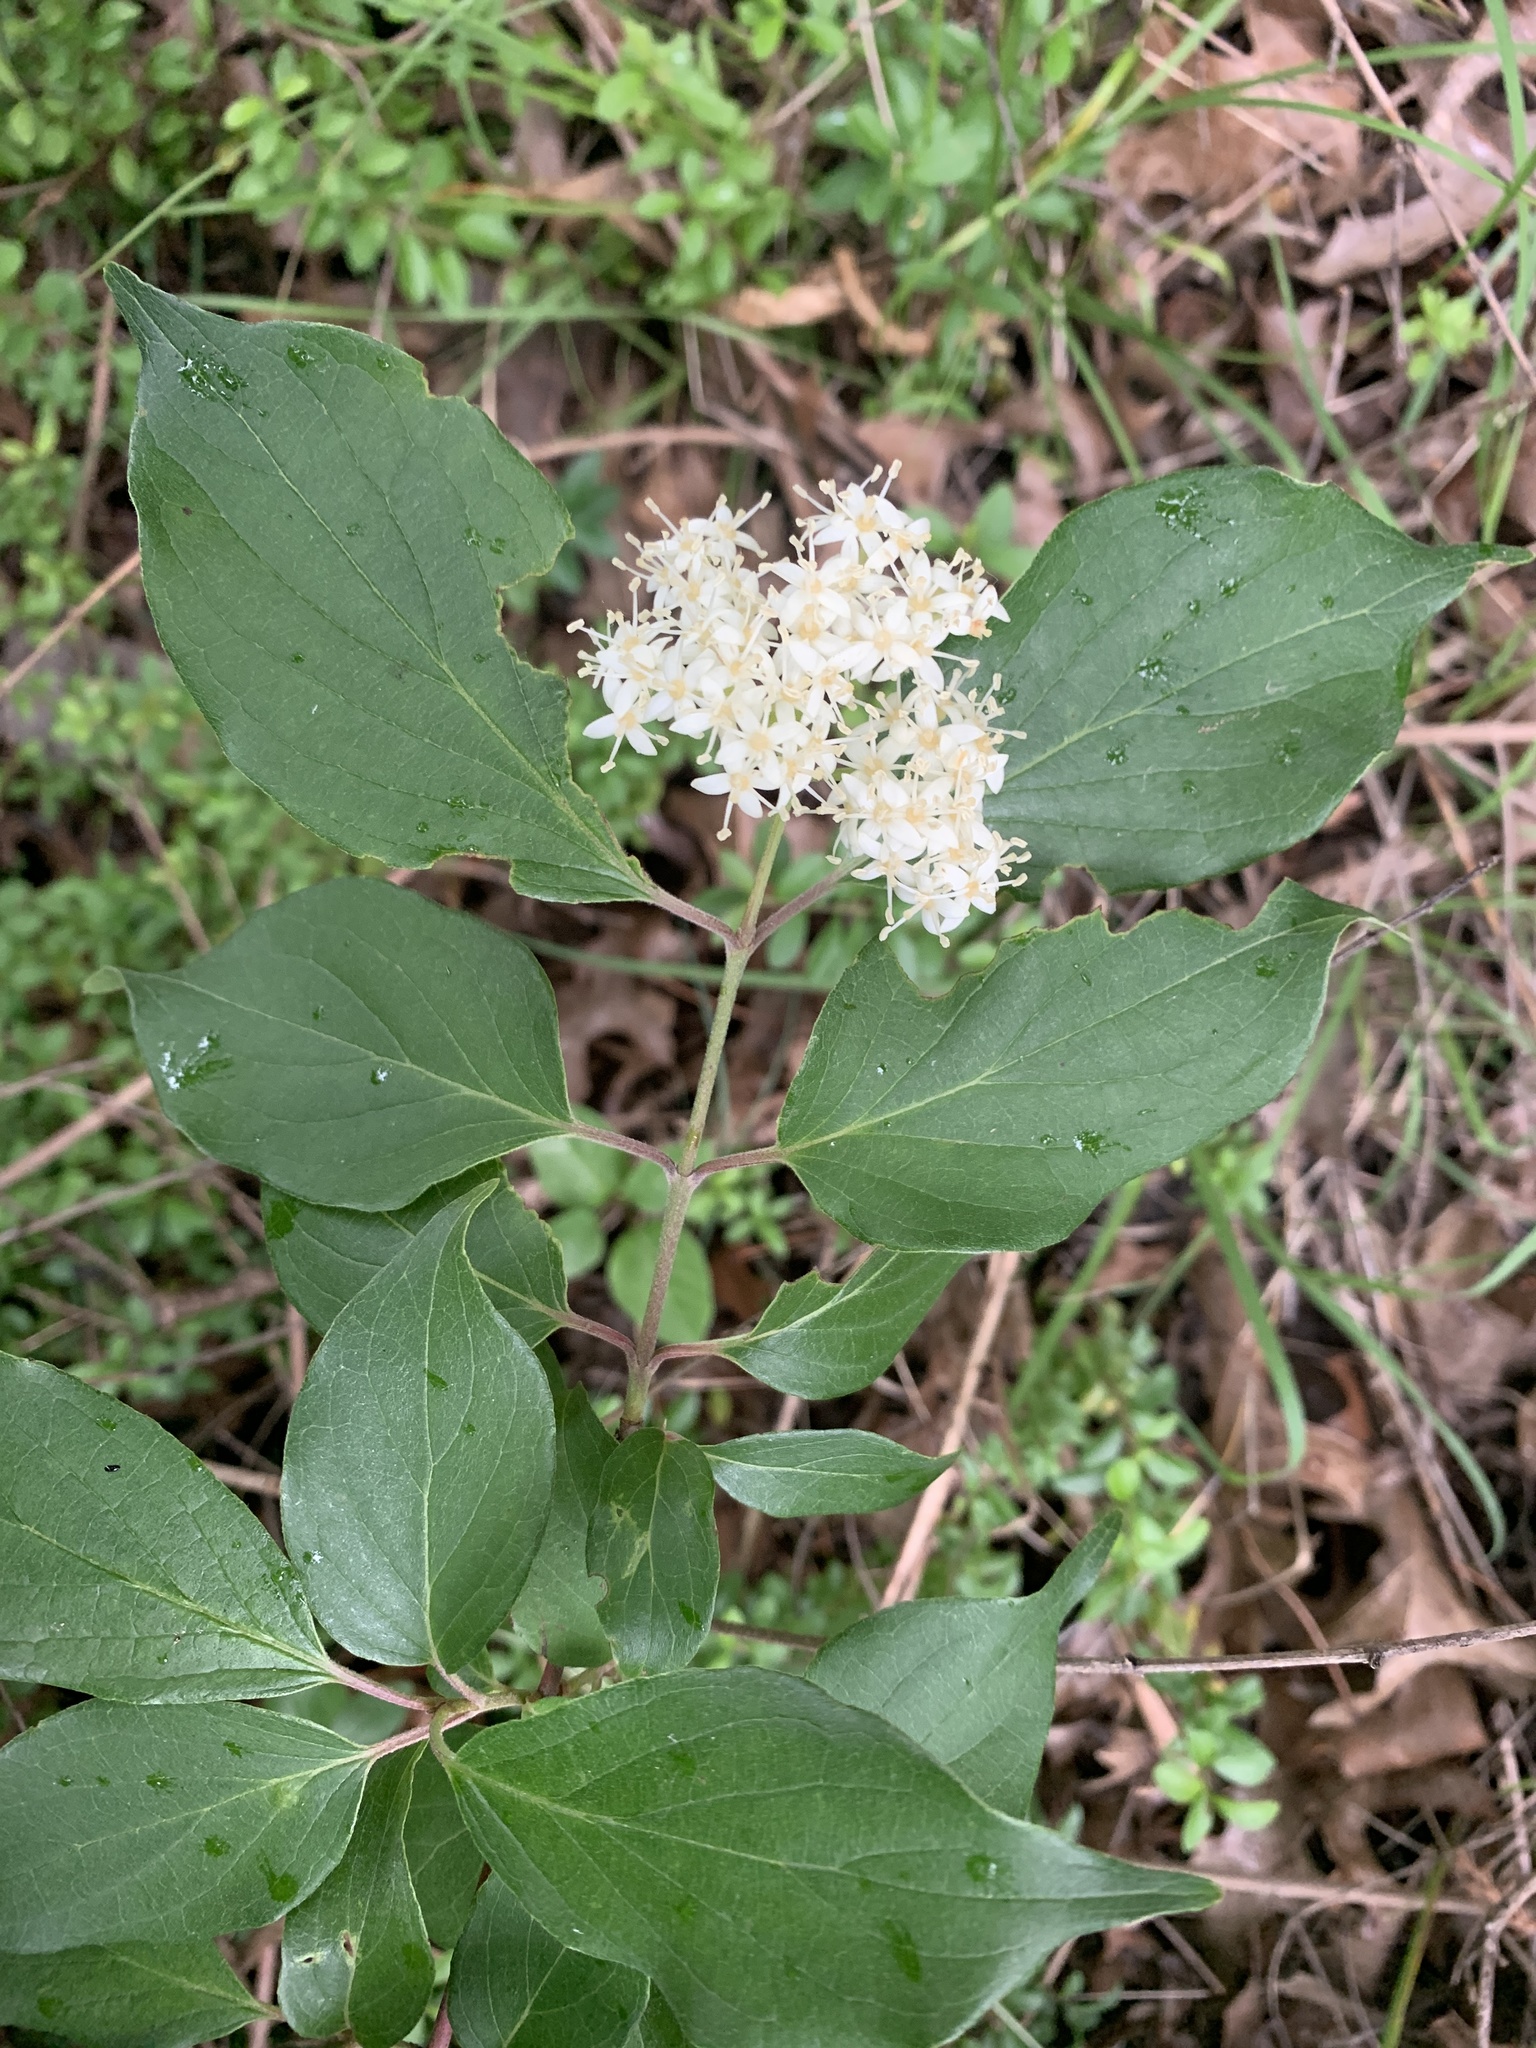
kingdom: Plantae
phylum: Tracheophyta
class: Magnoliopsida
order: Cornales
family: Cornaceae
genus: Cornus
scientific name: Cornus drummondii
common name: Rough-leaf dogwood
